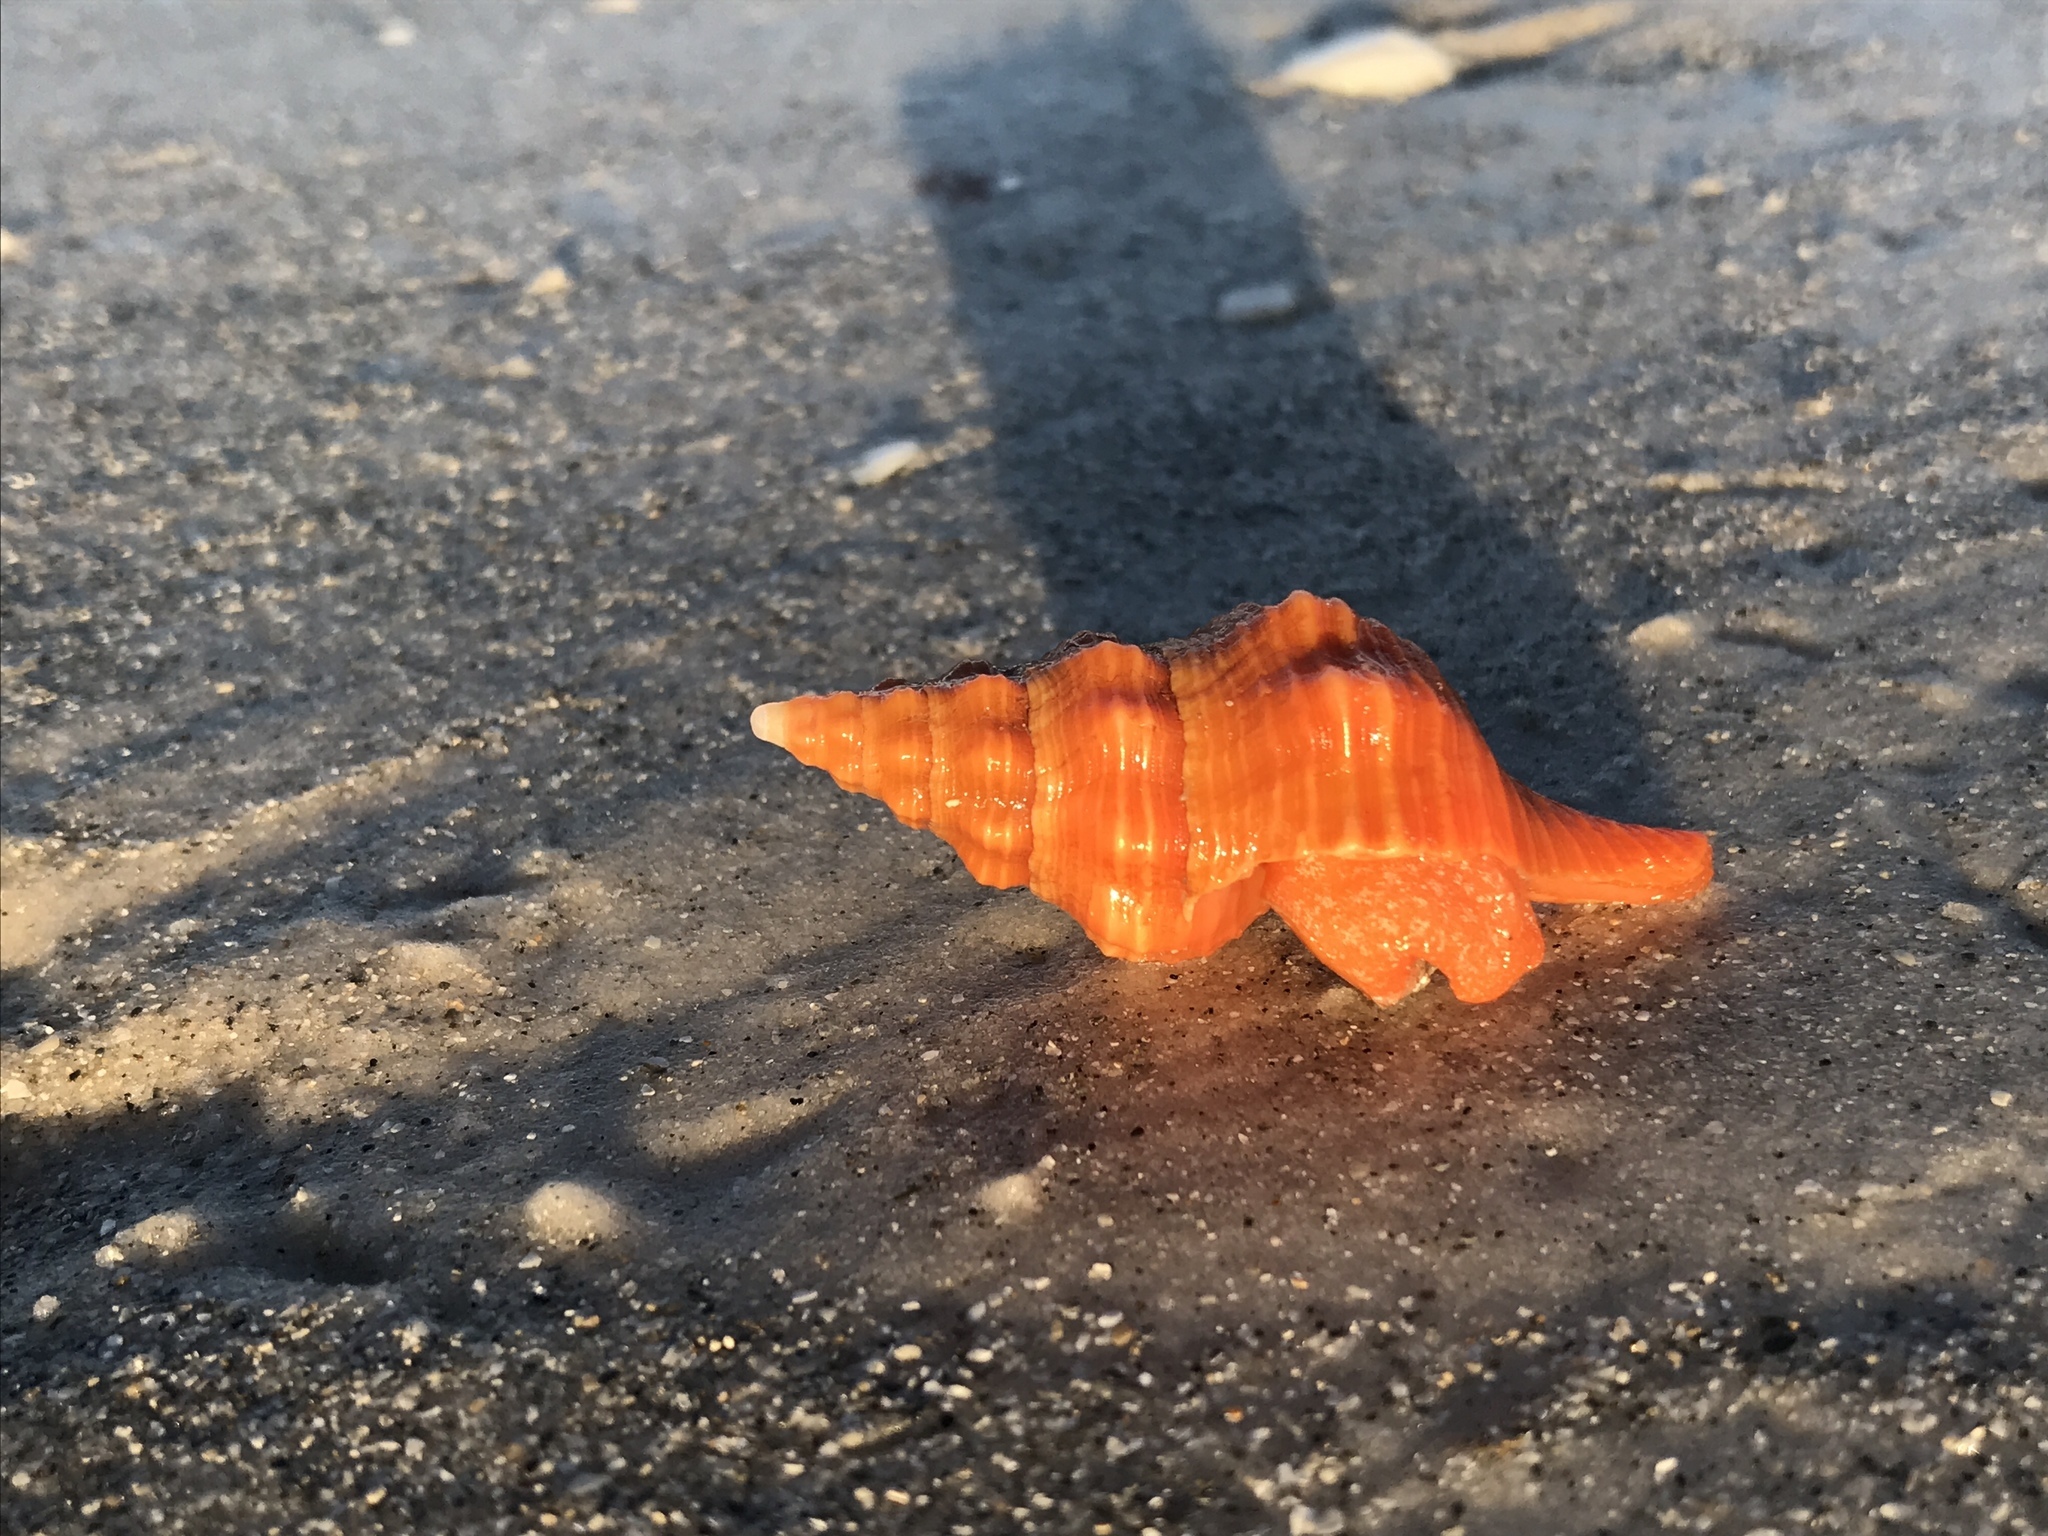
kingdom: Animalia
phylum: Mollusca
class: Gastropoda
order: Neogastropoda
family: Fasciolariidae
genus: Triplofusus
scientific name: Triplofusus giganteus
